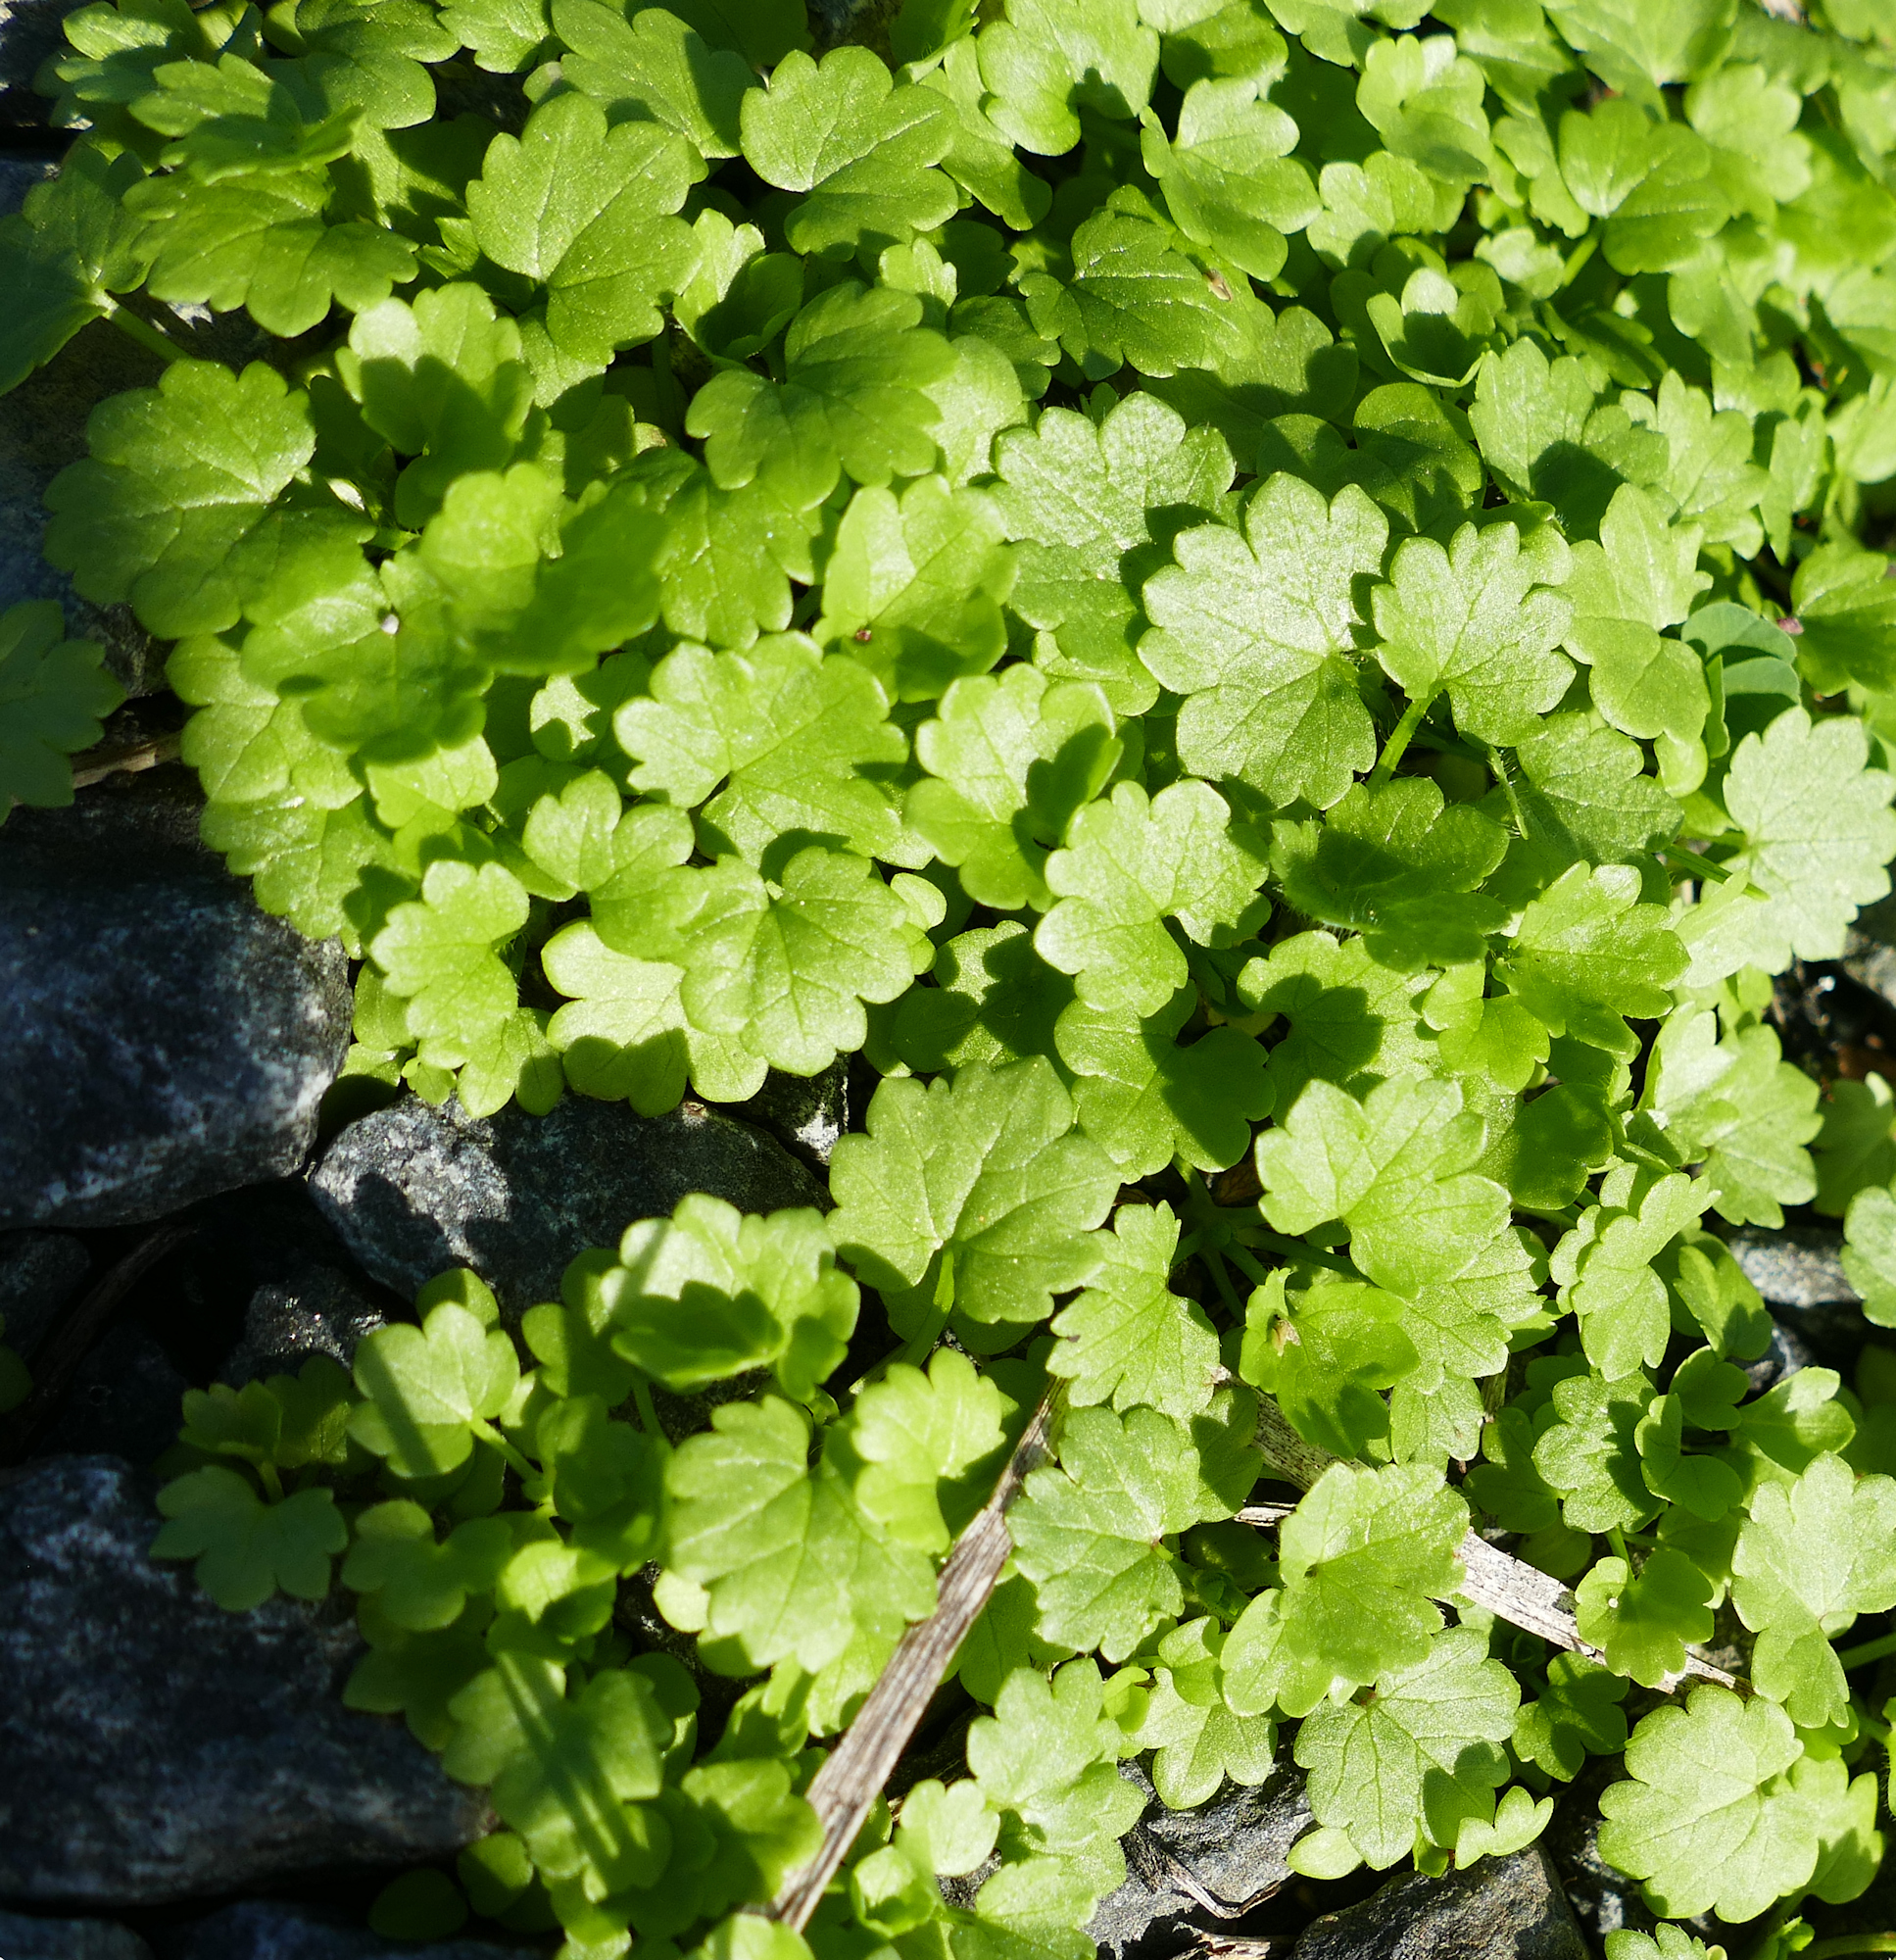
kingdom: Plantae
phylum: Tracheophyta
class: Magnoliopsida
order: Lamiales
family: Lamiaceae
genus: Glechoma
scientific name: Glechoma hederacea
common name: Ground ivy
